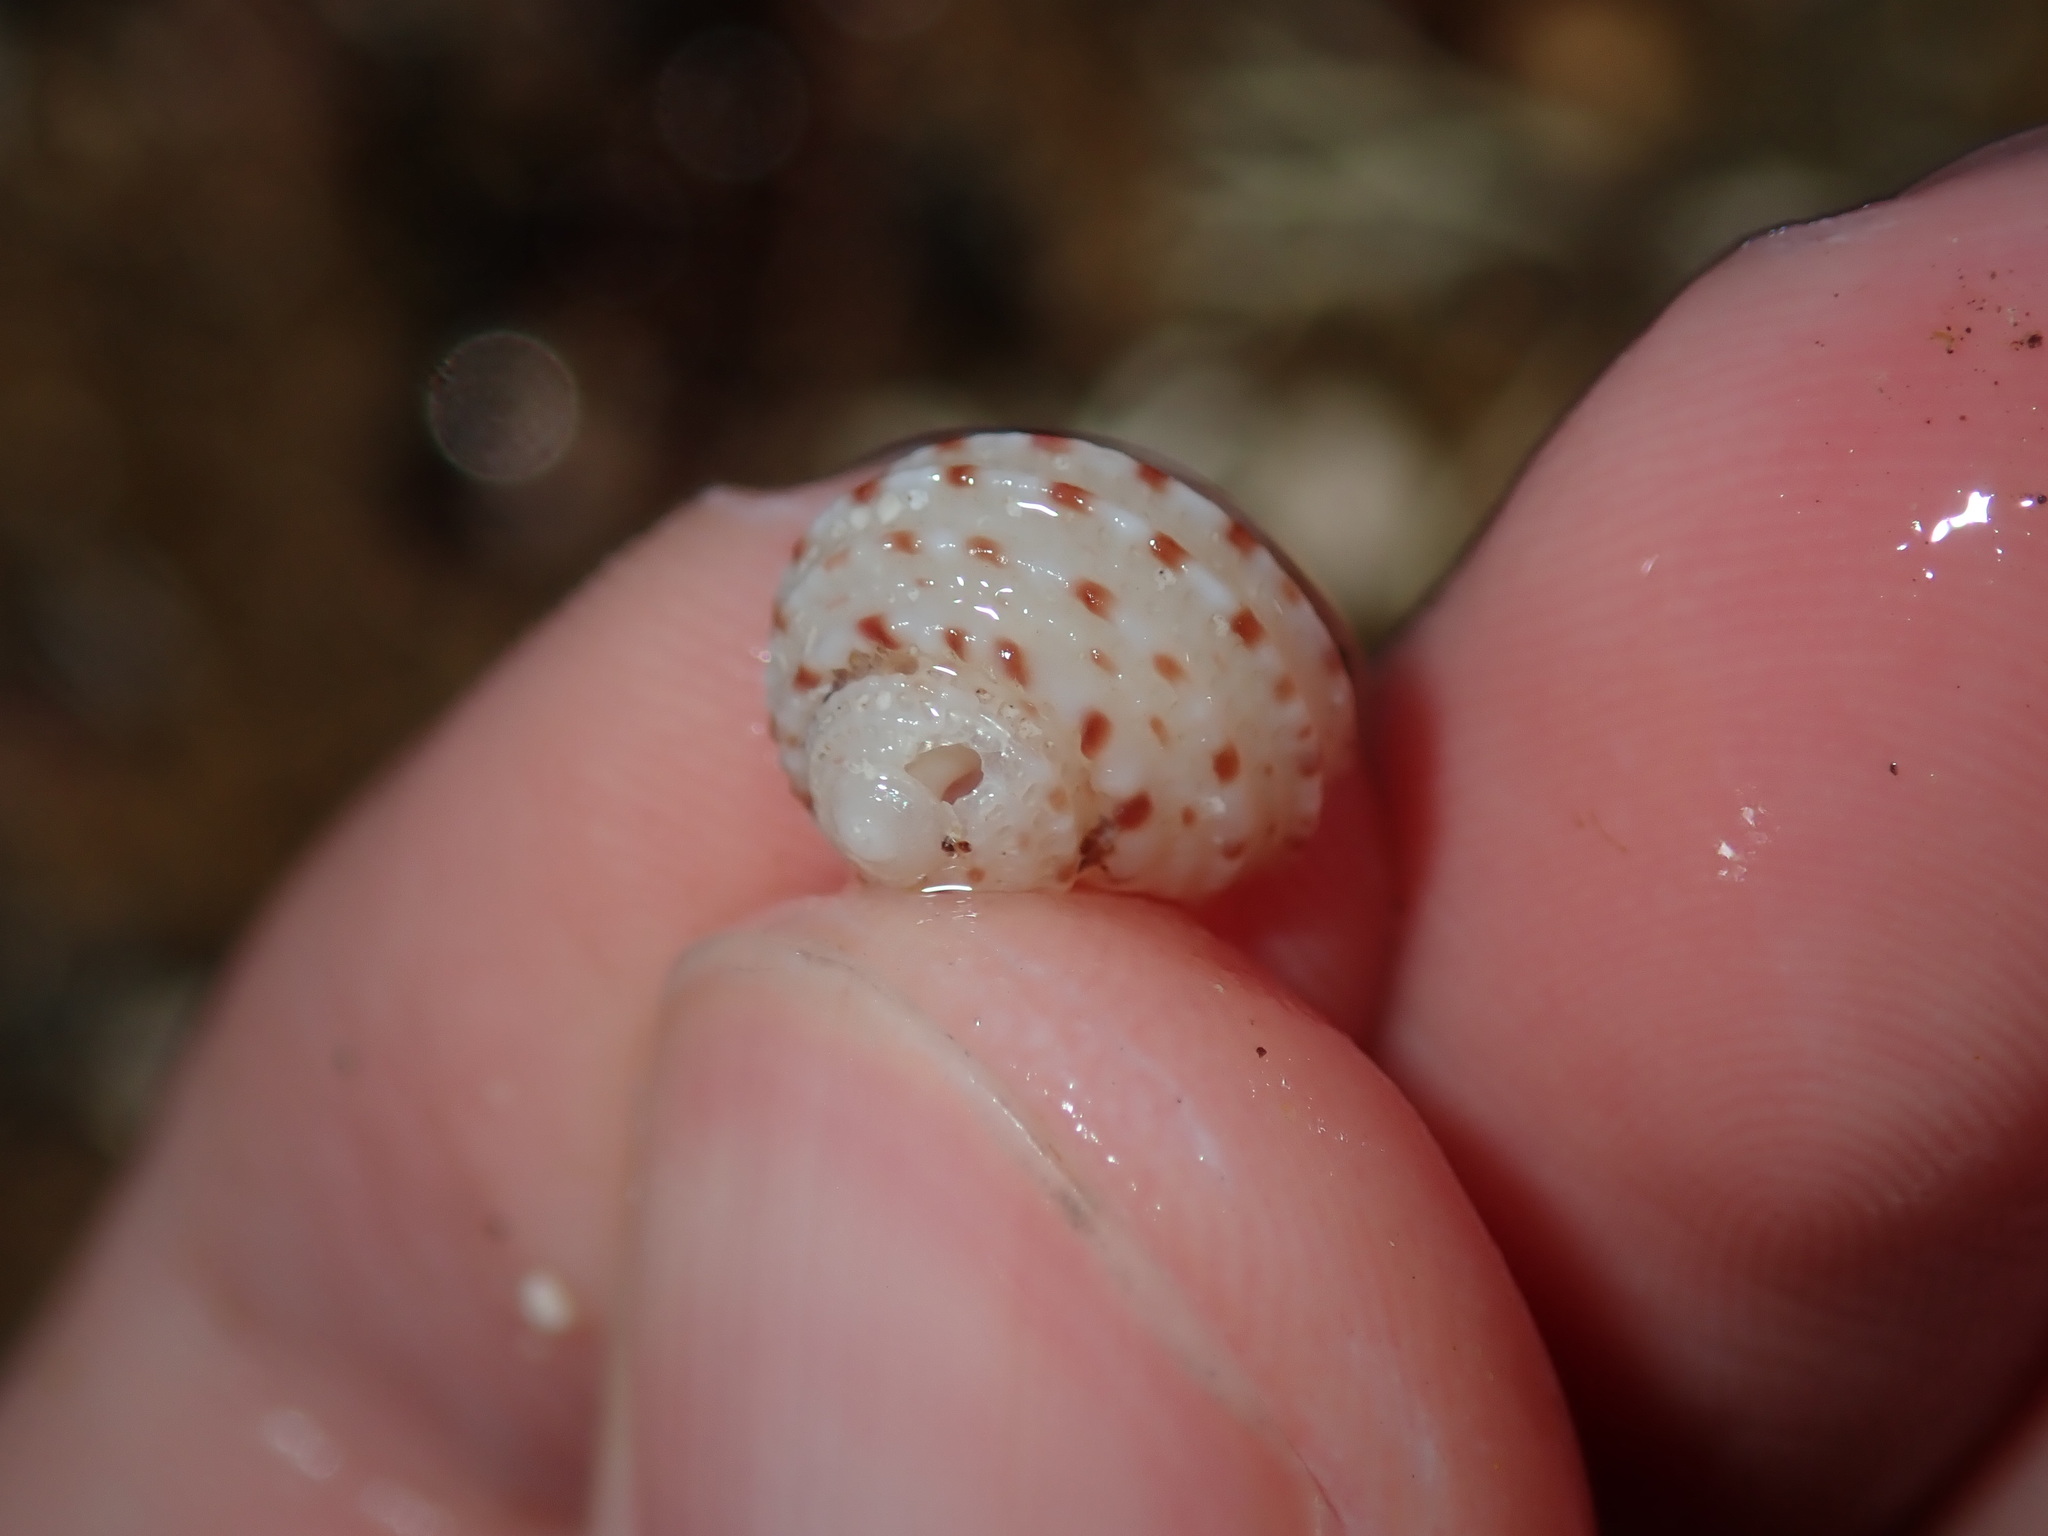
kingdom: Animalia
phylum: Mollusca
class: Gastropoda
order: Seguenziida
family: Chilodontaidae
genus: Vaceuchelus
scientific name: Vaceuchelus ampullus
